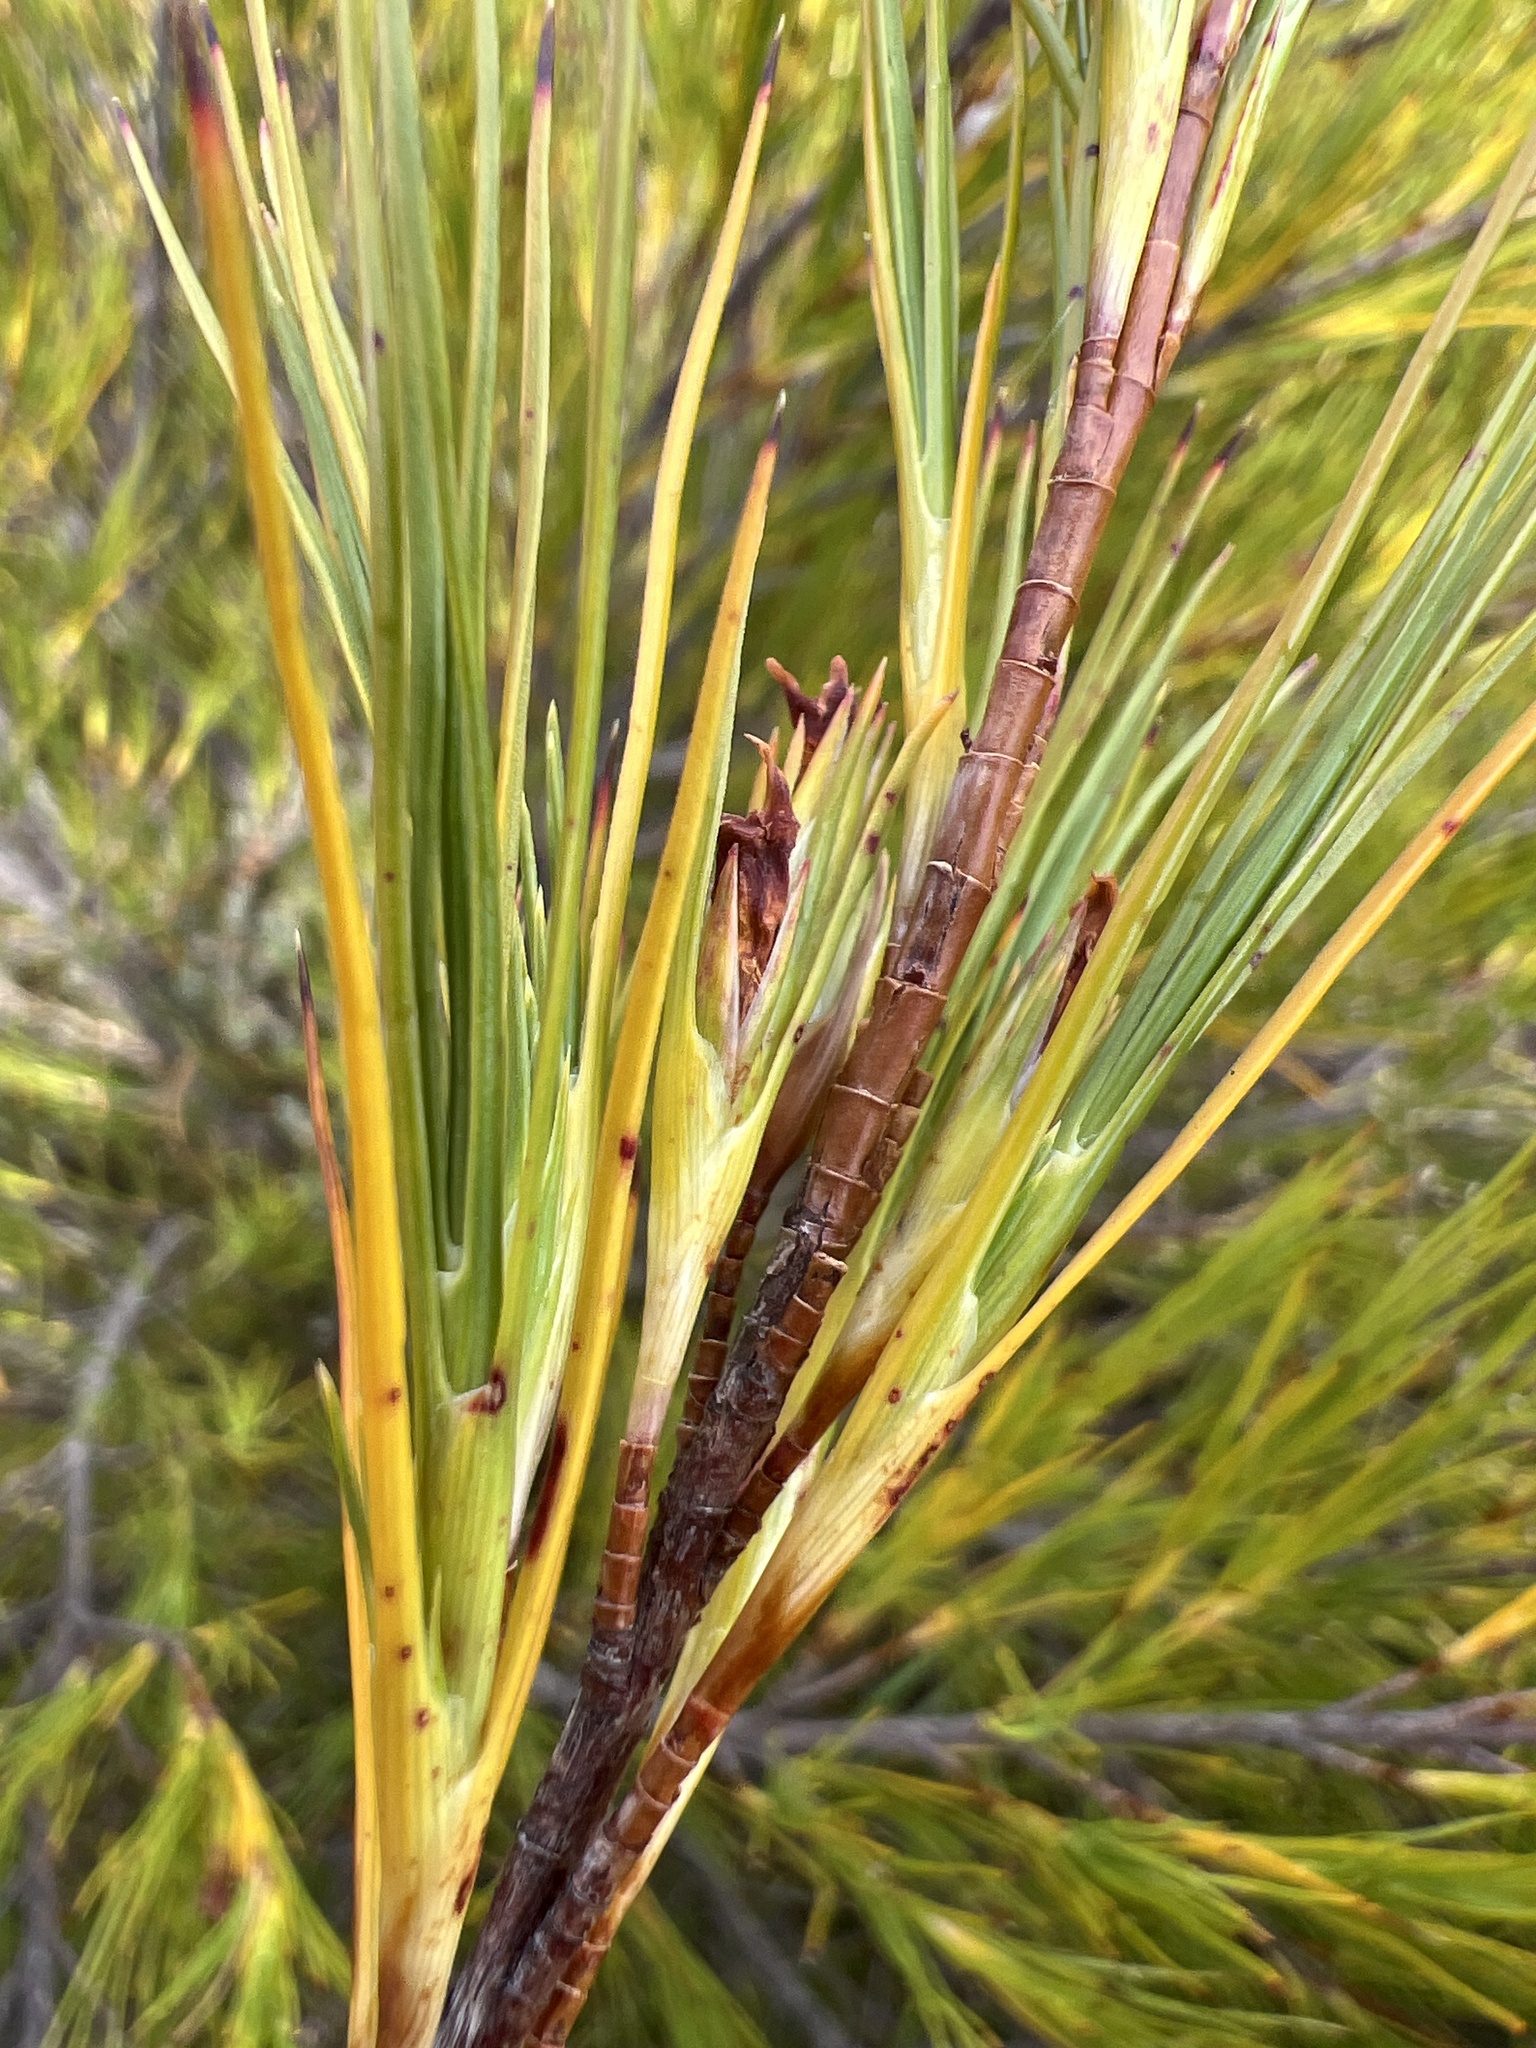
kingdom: Plantae
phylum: Tracheophyta
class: Magnoliopsida
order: Ericales
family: Ericaceae
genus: Dracophyllum
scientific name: Dracophyllum rosmarinifolium
